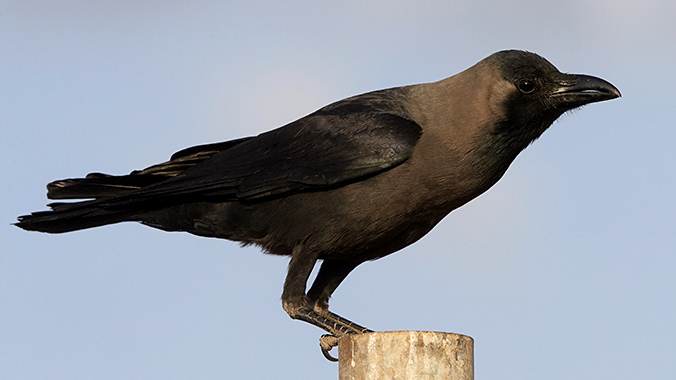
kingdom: Animalia
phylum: Chordata
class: Aves
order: Passeriformes
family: Corvidae
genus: Corvus
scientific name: Corvus splendens
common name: House crow
